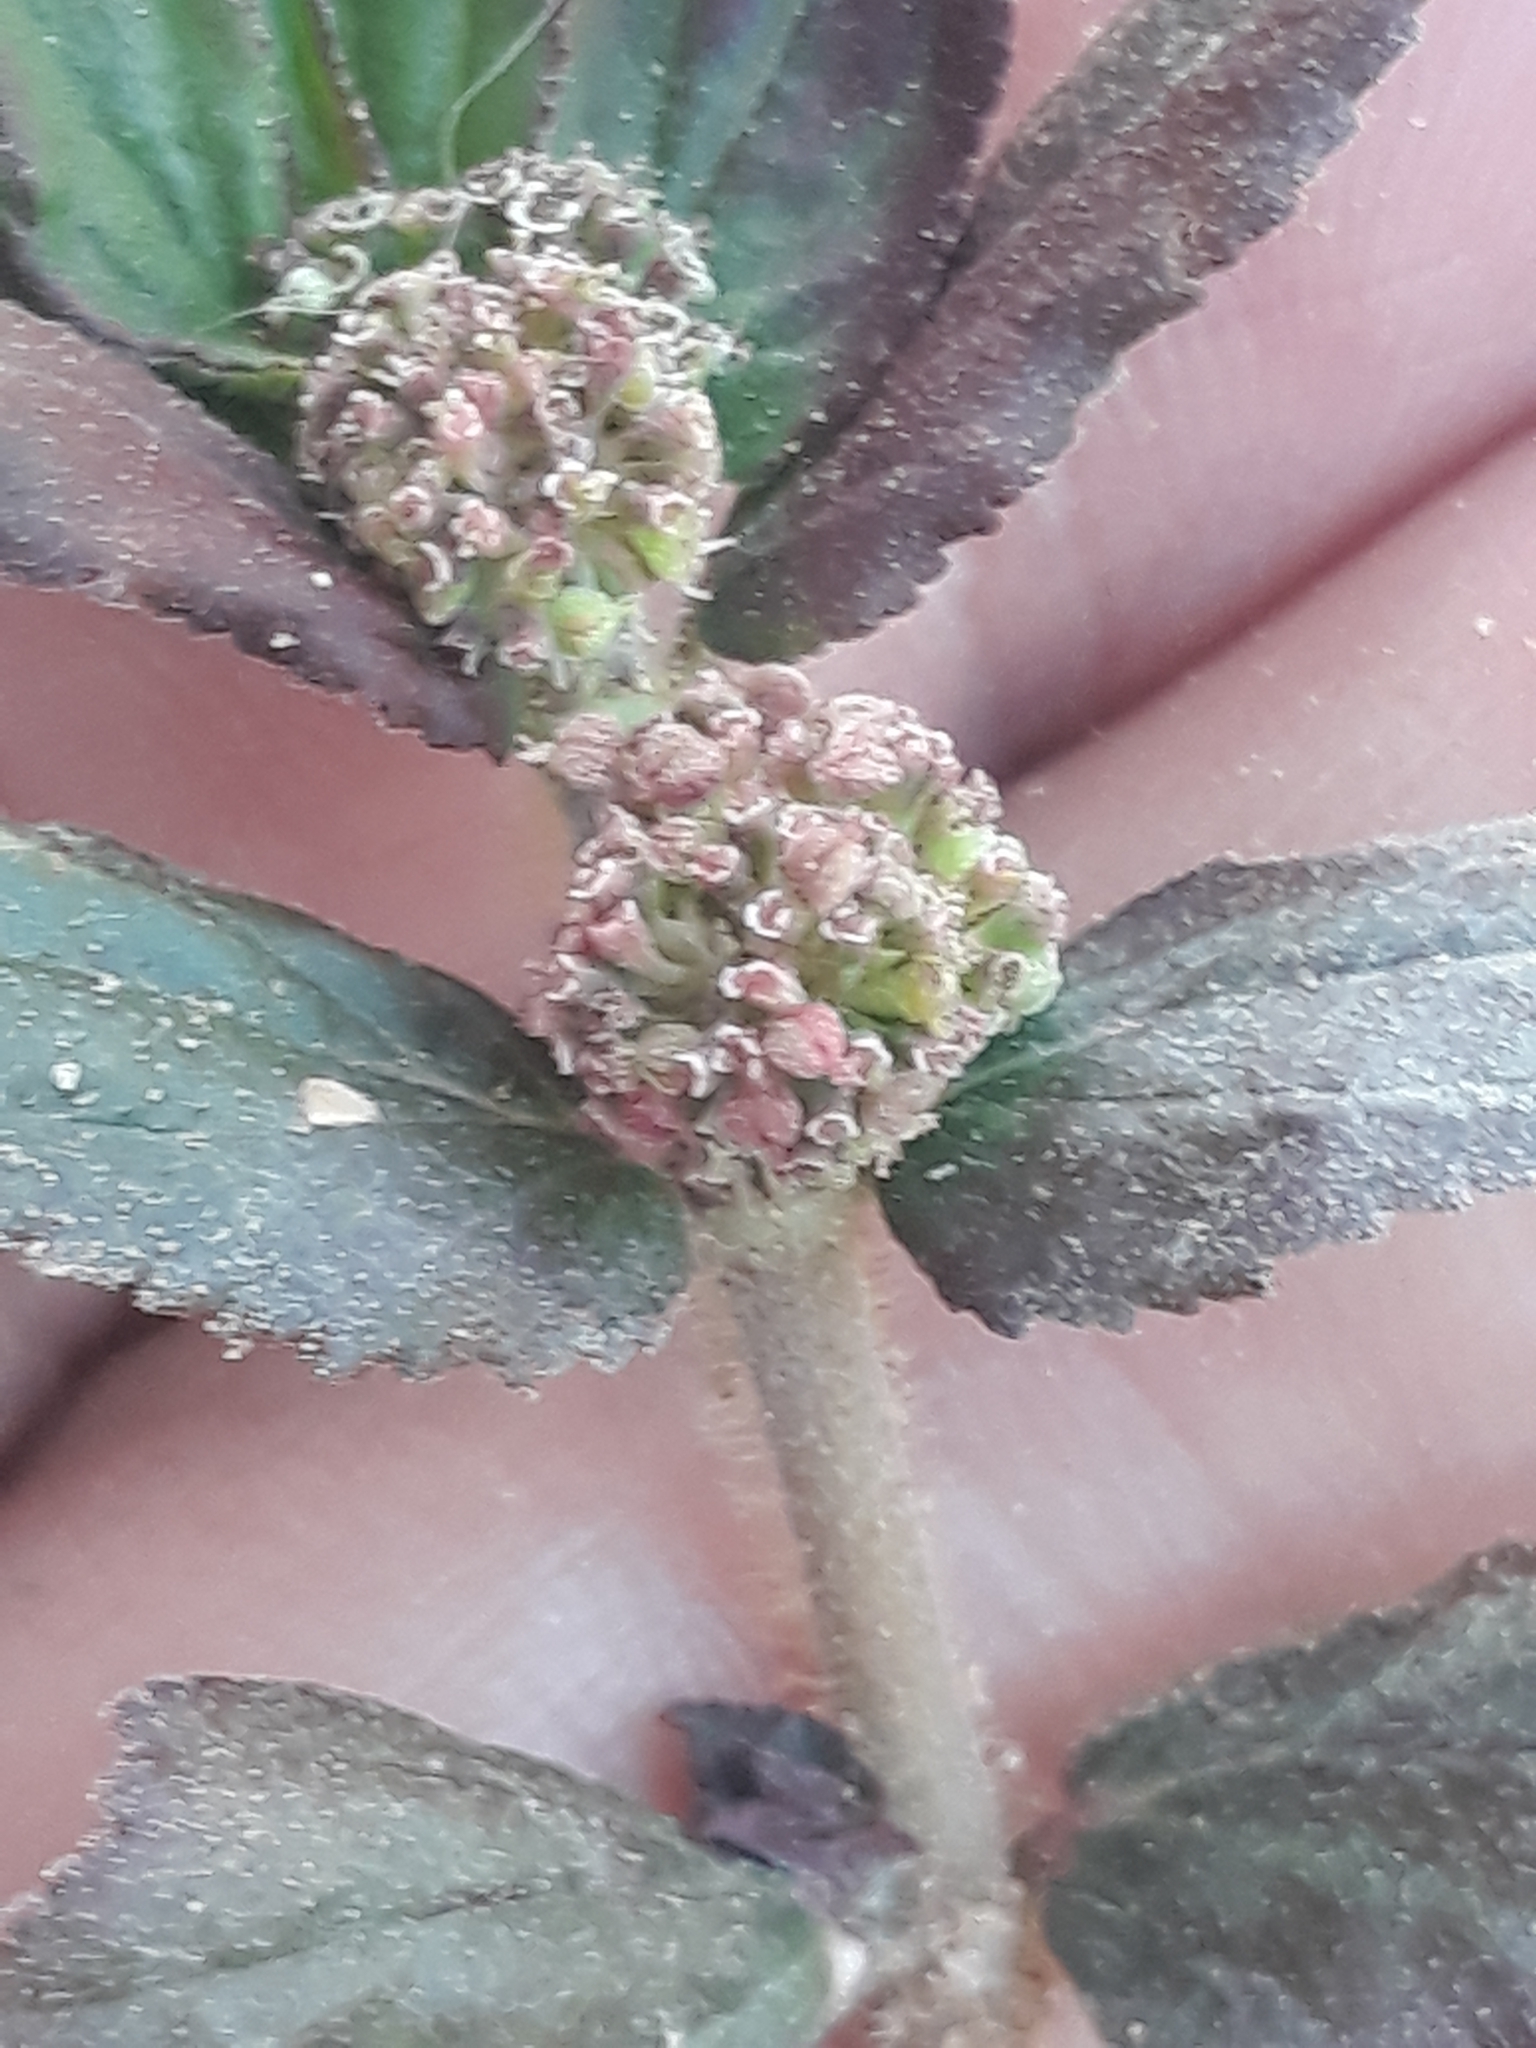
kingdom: Plantae
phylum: Tracheophyta
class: Magnoliopsida
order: Malpighiales
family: Euphorbiaceae
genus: Euphorbia
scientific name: Euphorbia hirta
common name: Pillpod sandmat
